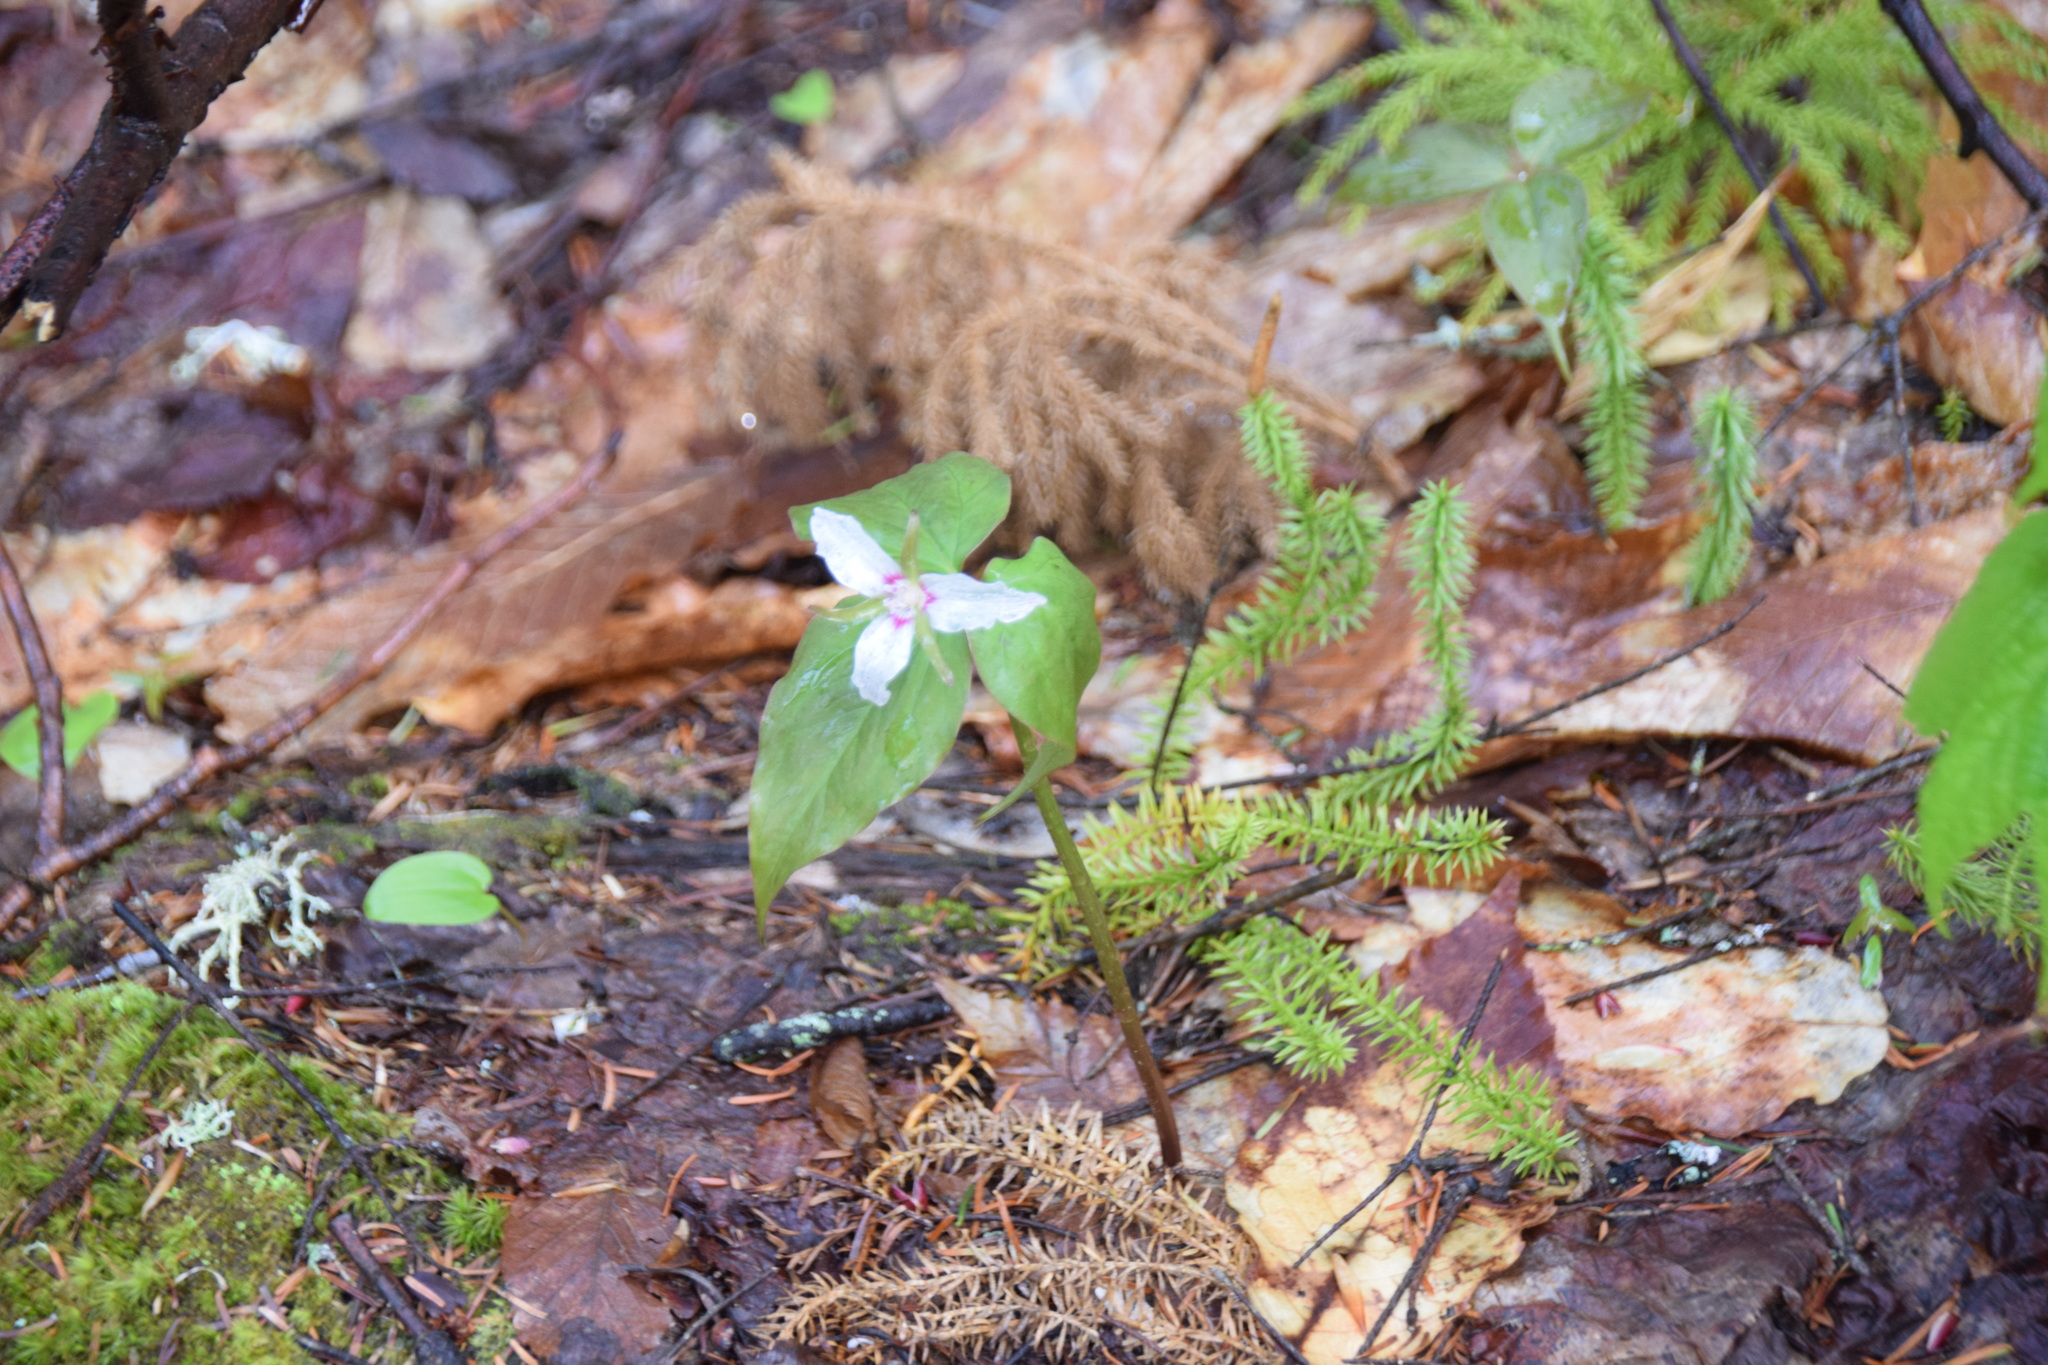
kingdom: Plantae
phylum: Tracheophyta
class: Liliopsida
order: Liliales
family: Melanthiaceae
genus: Trillium
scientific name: Trillium undulatum
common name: Paint trillium
